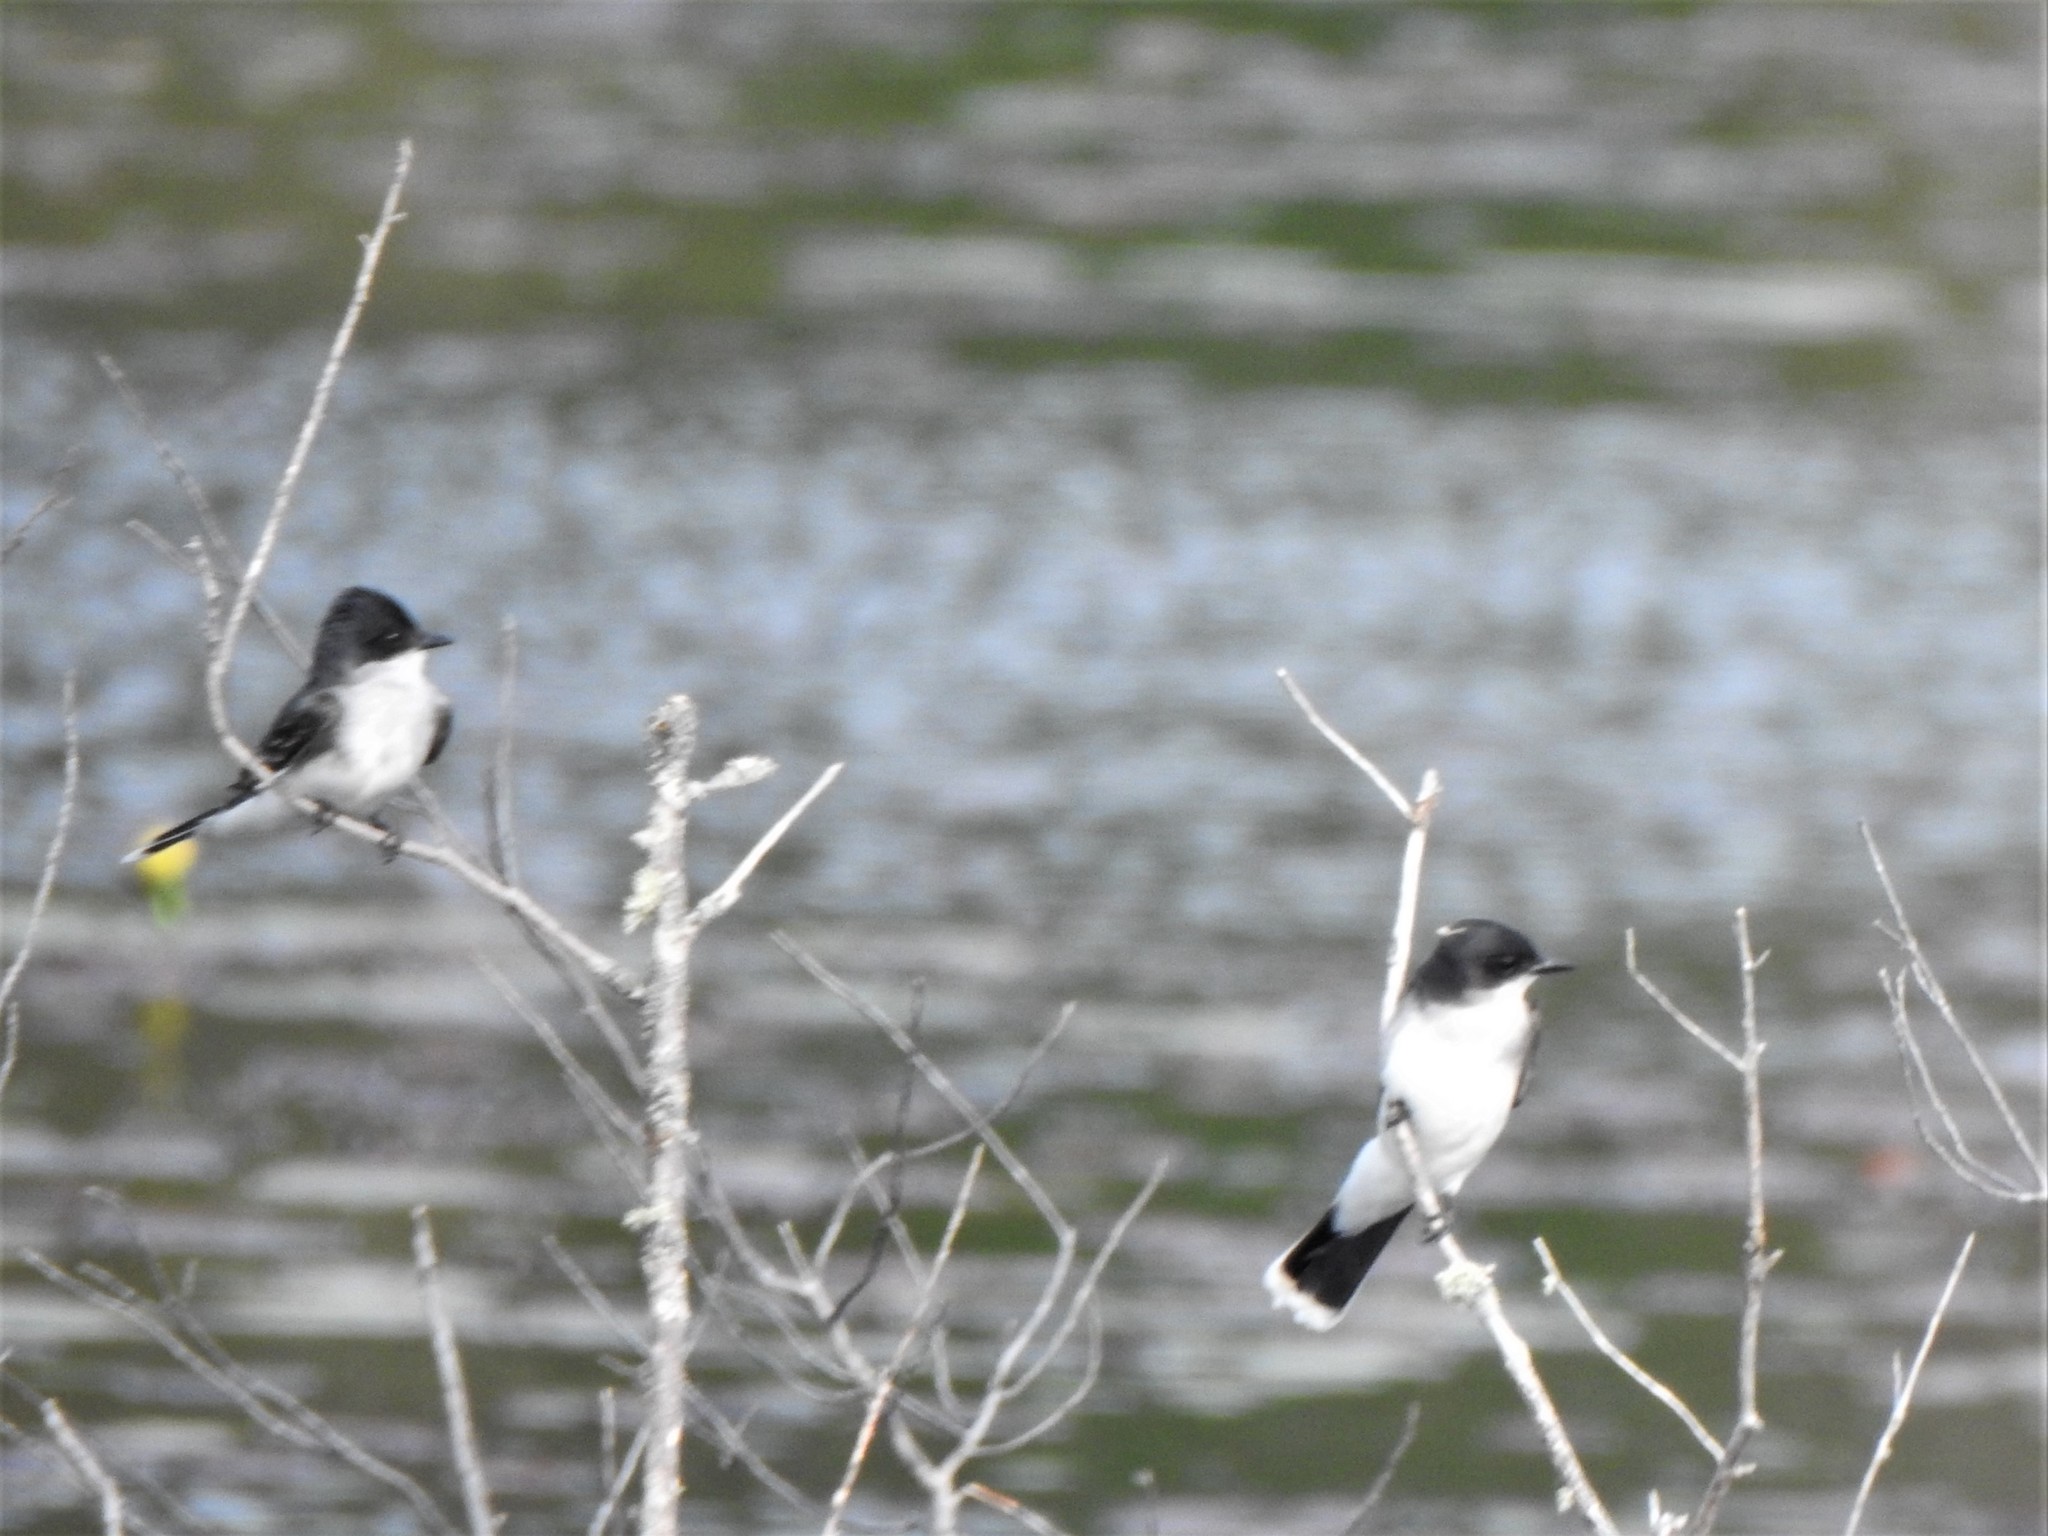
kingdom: Animalia
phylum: Chordata
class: Aves
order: Passeriformes
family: Tyrannidae
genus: Tyrannus
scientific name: Tyrannus tyrannus
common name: Eastern kingbird
